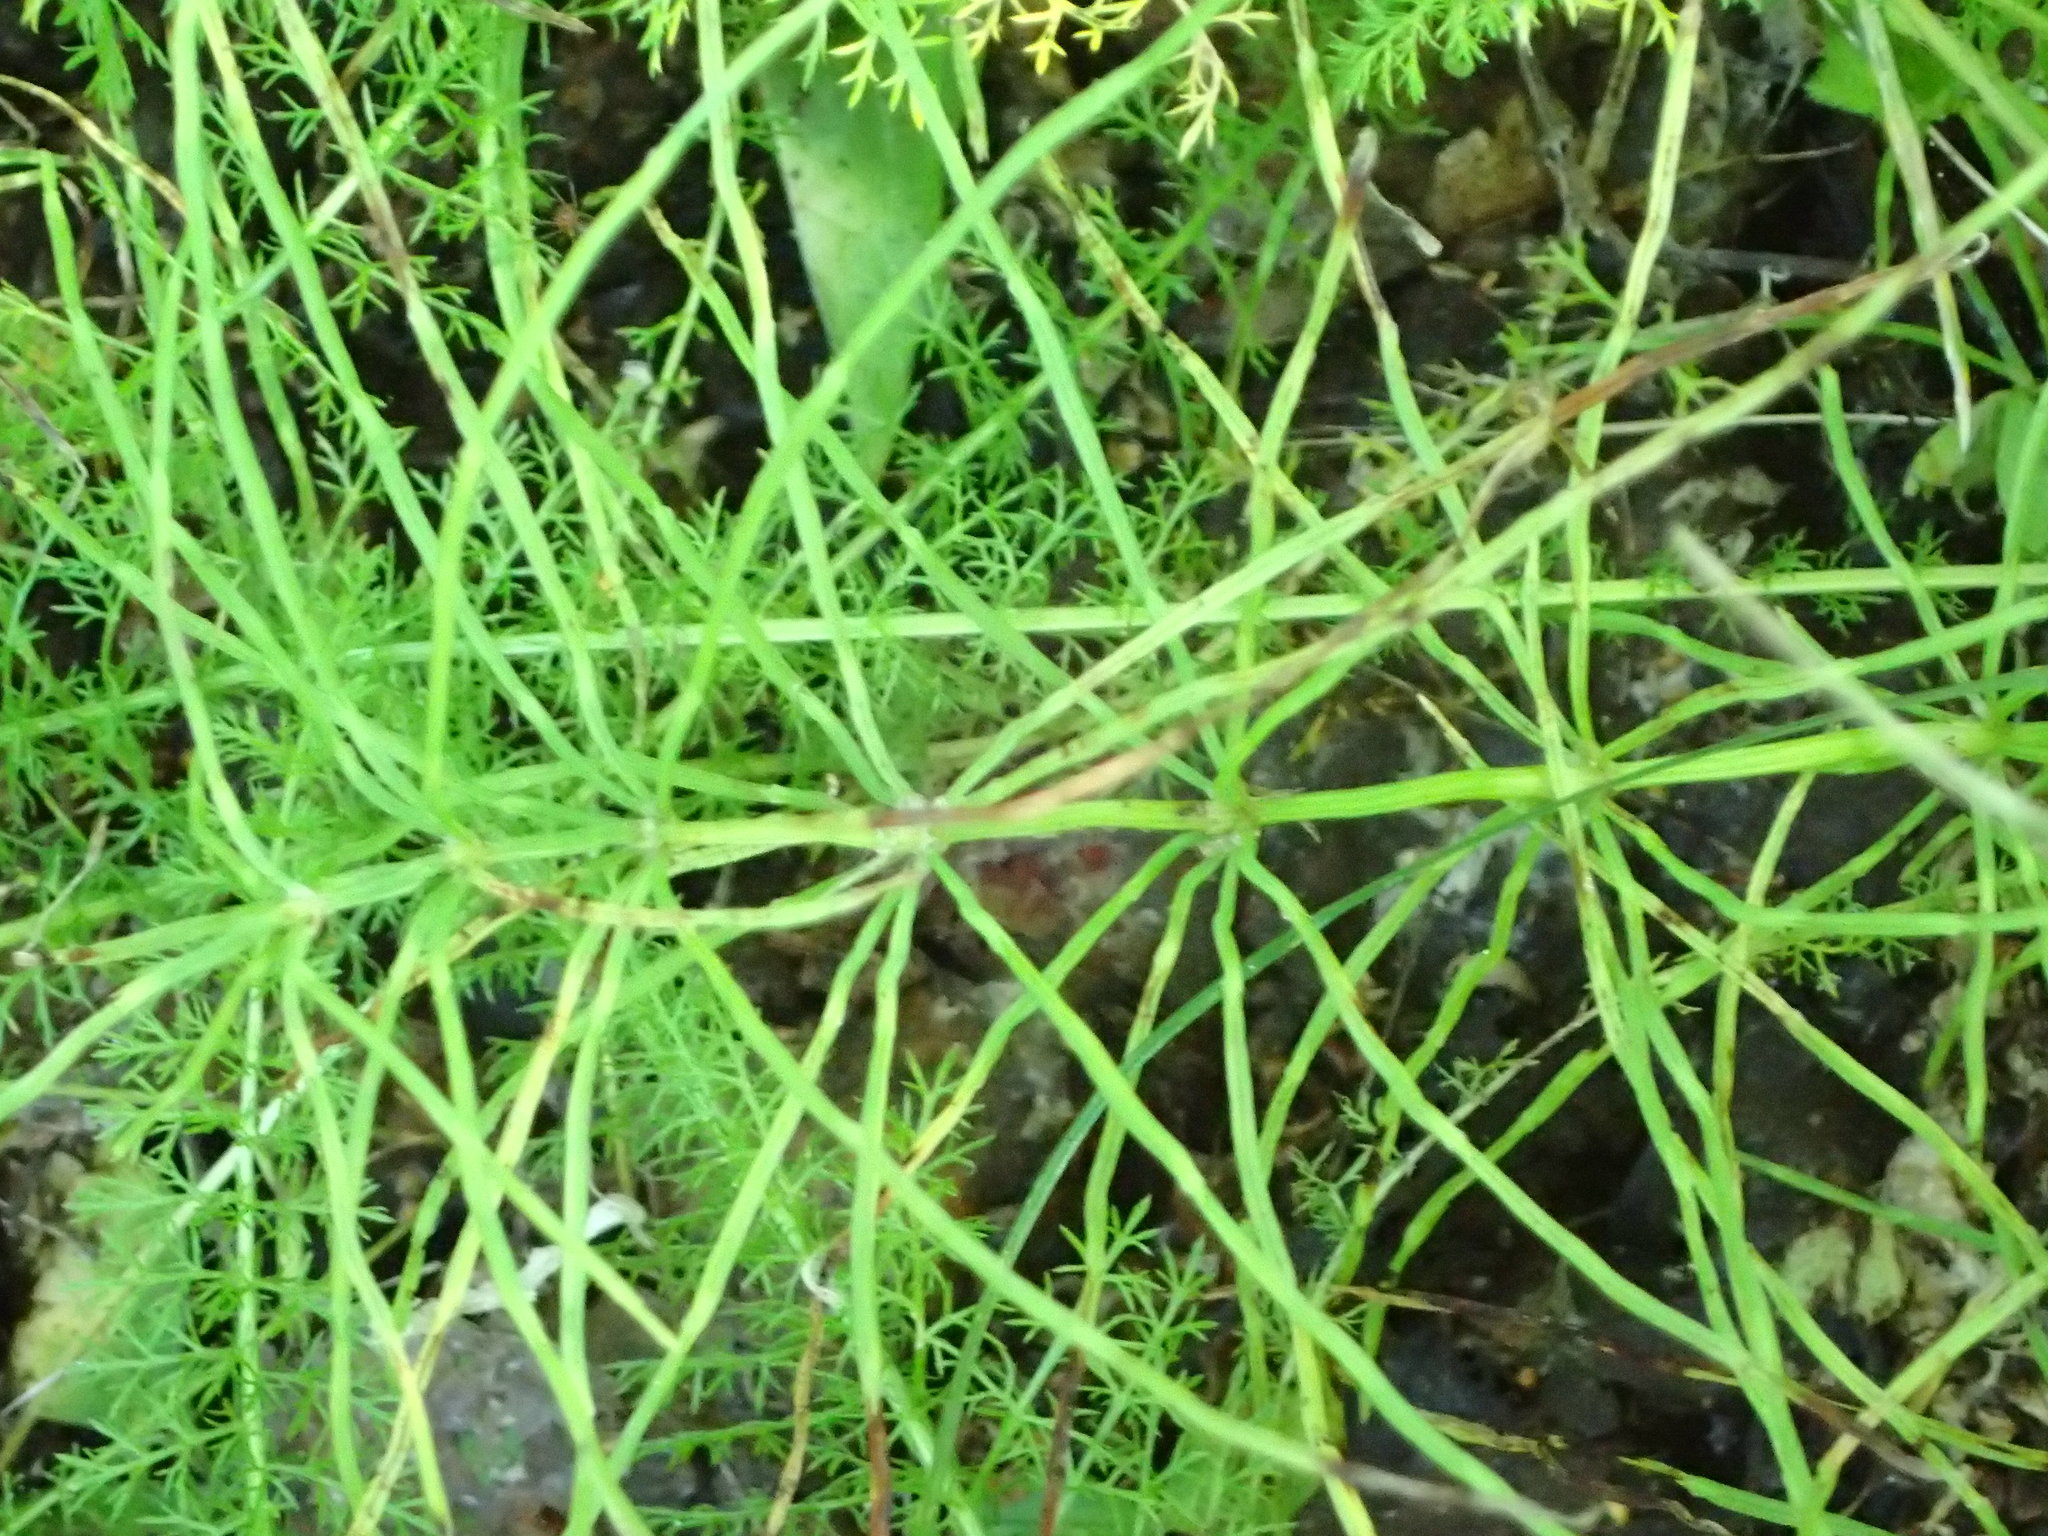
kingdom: Plantae
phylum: Tracheophyta
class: Polypodiopsida
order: Equisetales
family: Equisetaceae
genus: Equisetum
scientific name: Equisetum arvense
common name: Field horsetail
